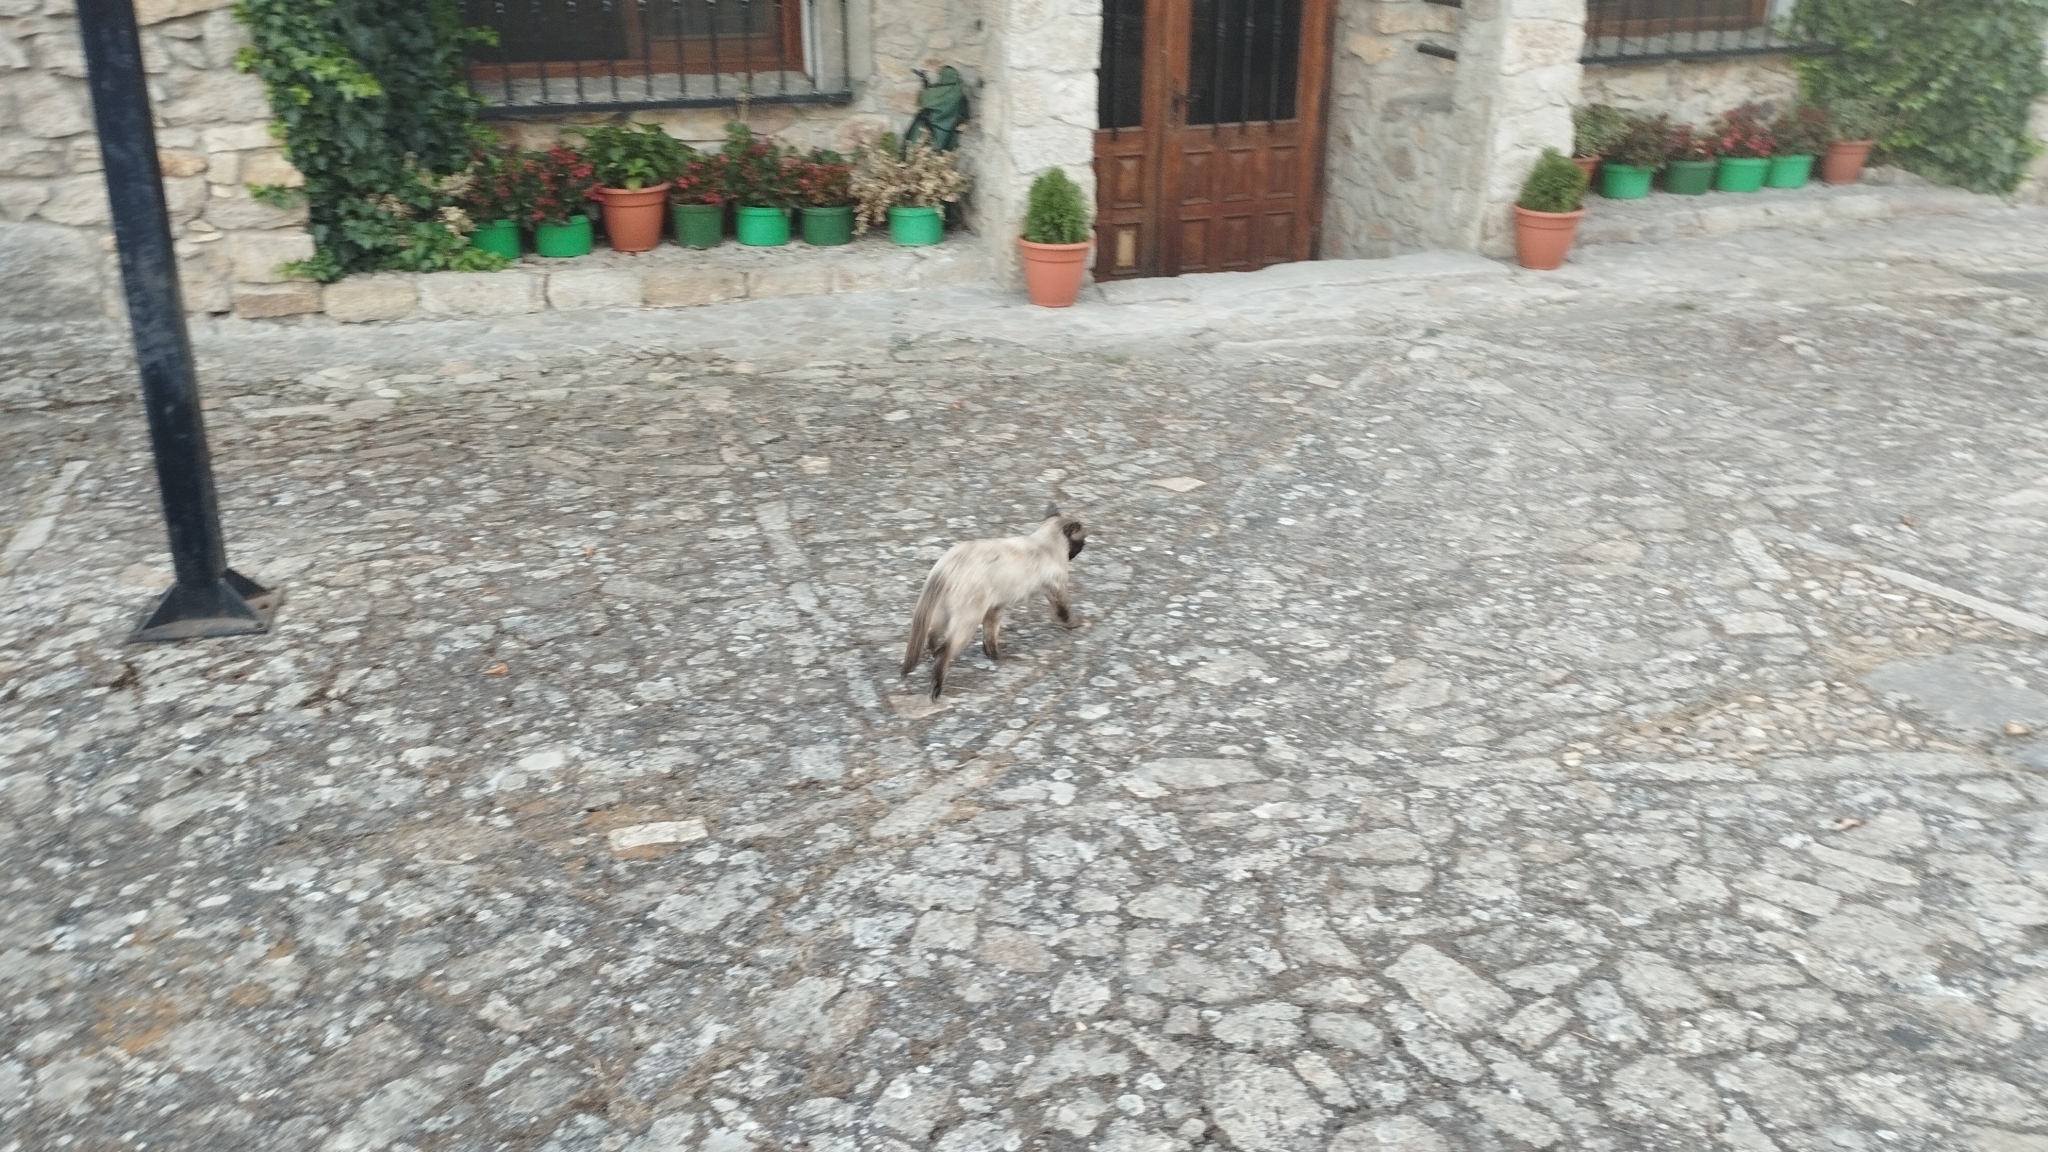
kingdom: Animalia
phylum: Chordata
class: Mammalia
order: Carnivora
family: Felidae
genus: Felis
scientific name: Felis catus
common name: Domestic cat
